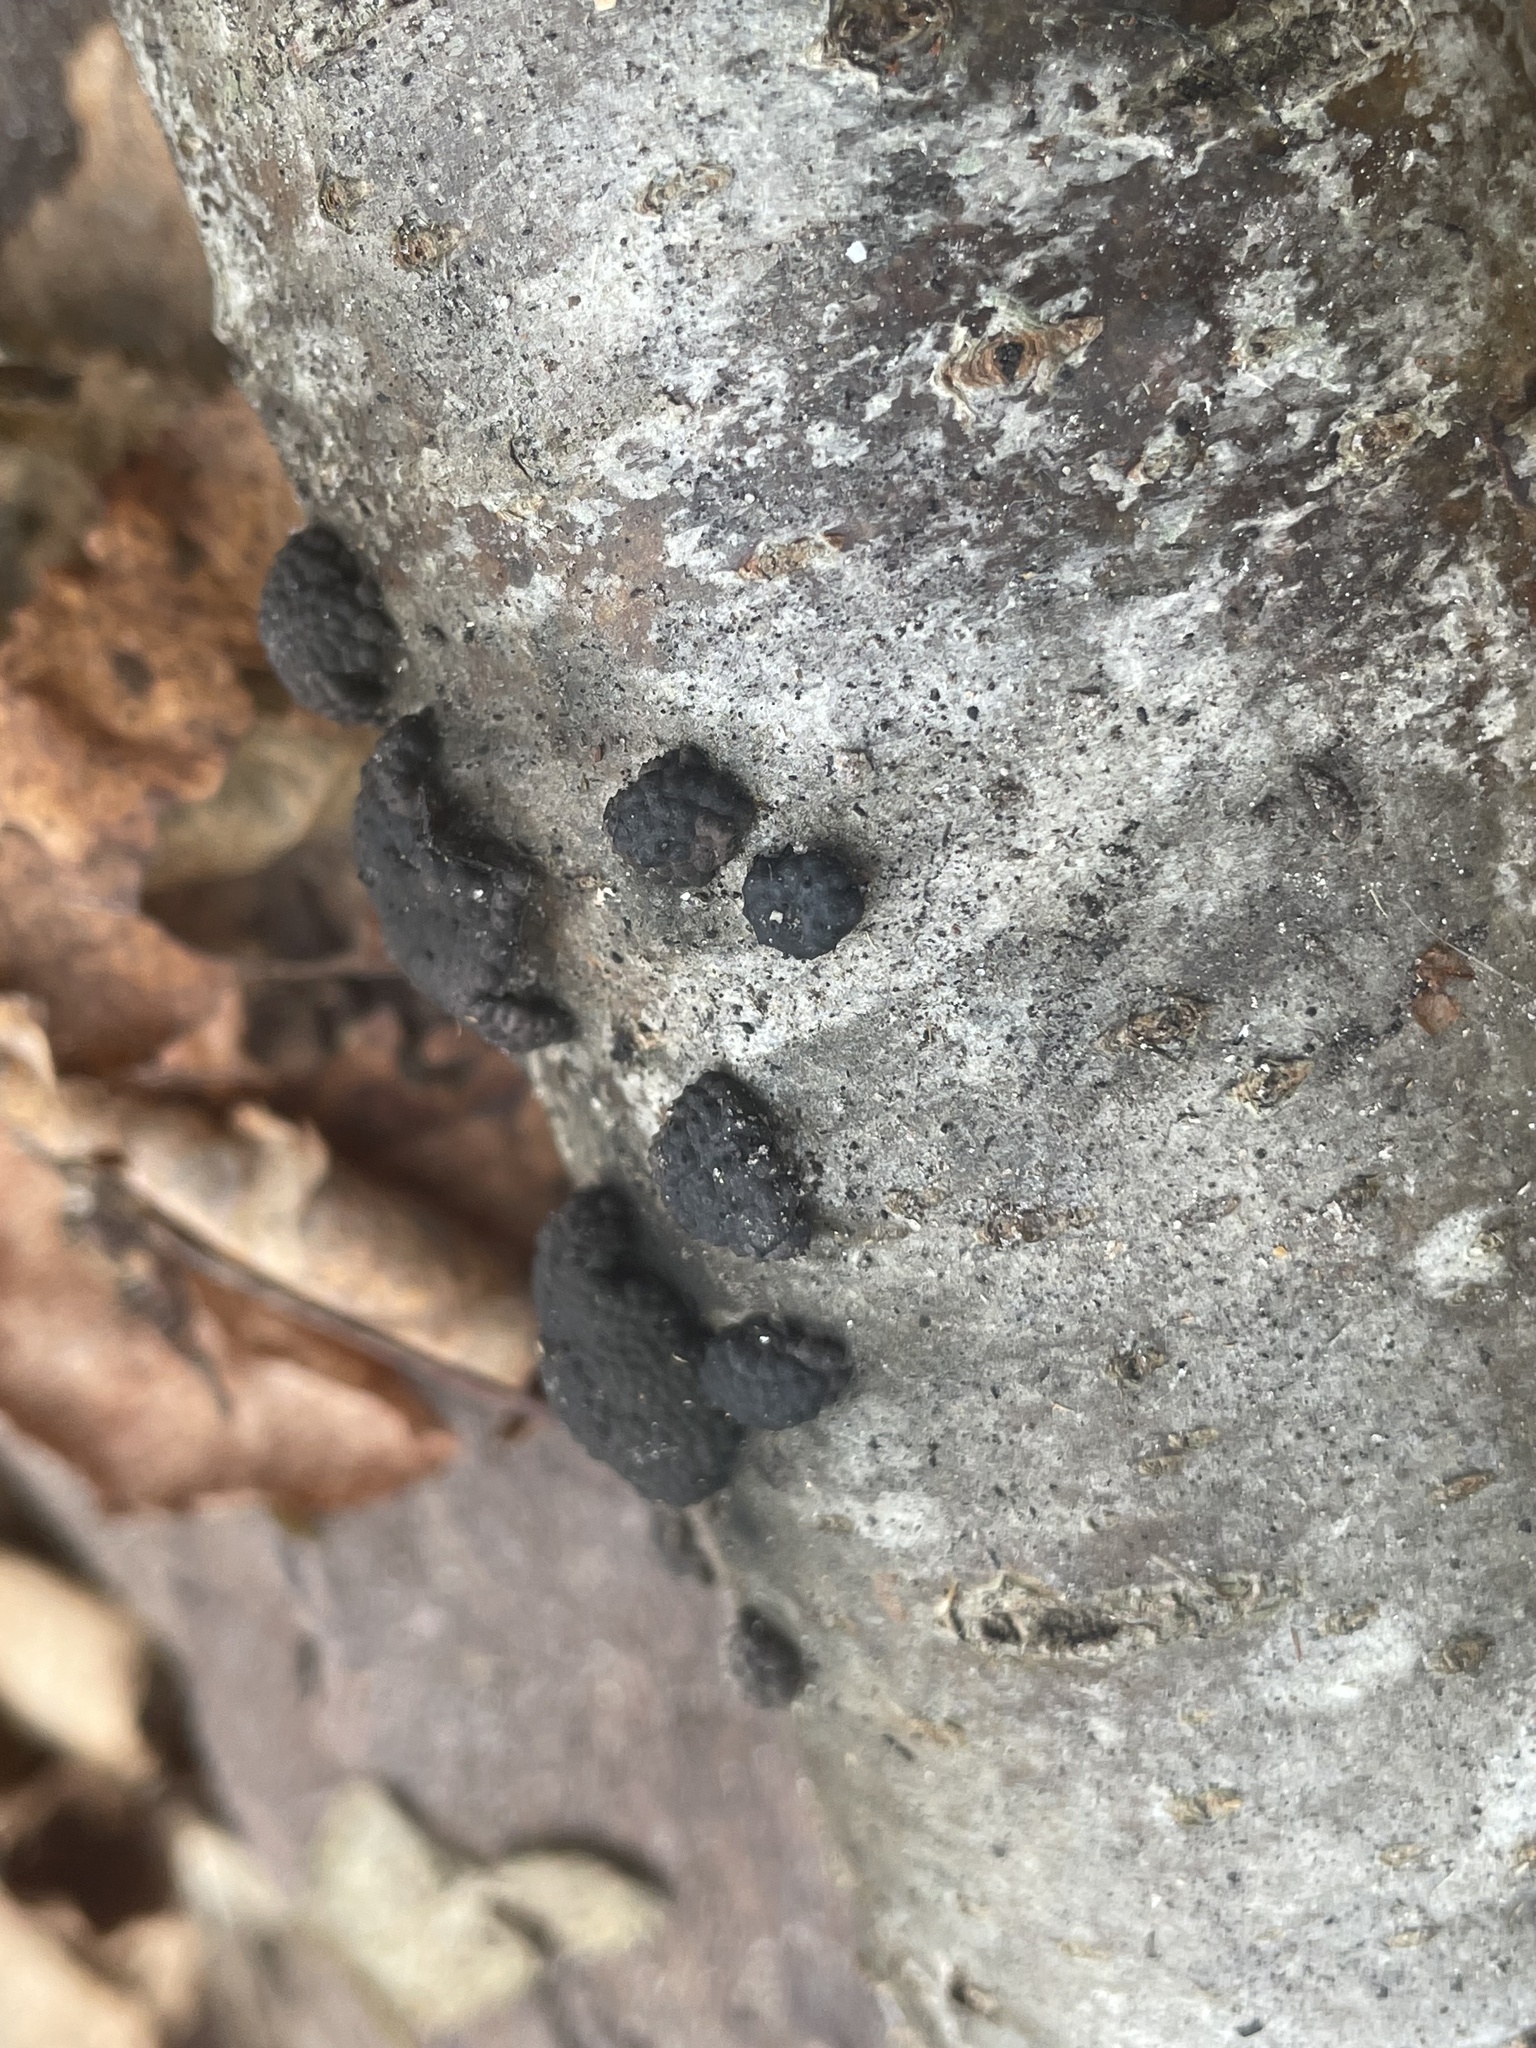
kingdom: Fungi
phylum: Ascomycota
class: Sordariomycetes
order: Xylariales
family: Hypoxylaceae
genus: Jackrogersella
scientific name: Jackrogersella multiformis
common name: Birch woodwart
